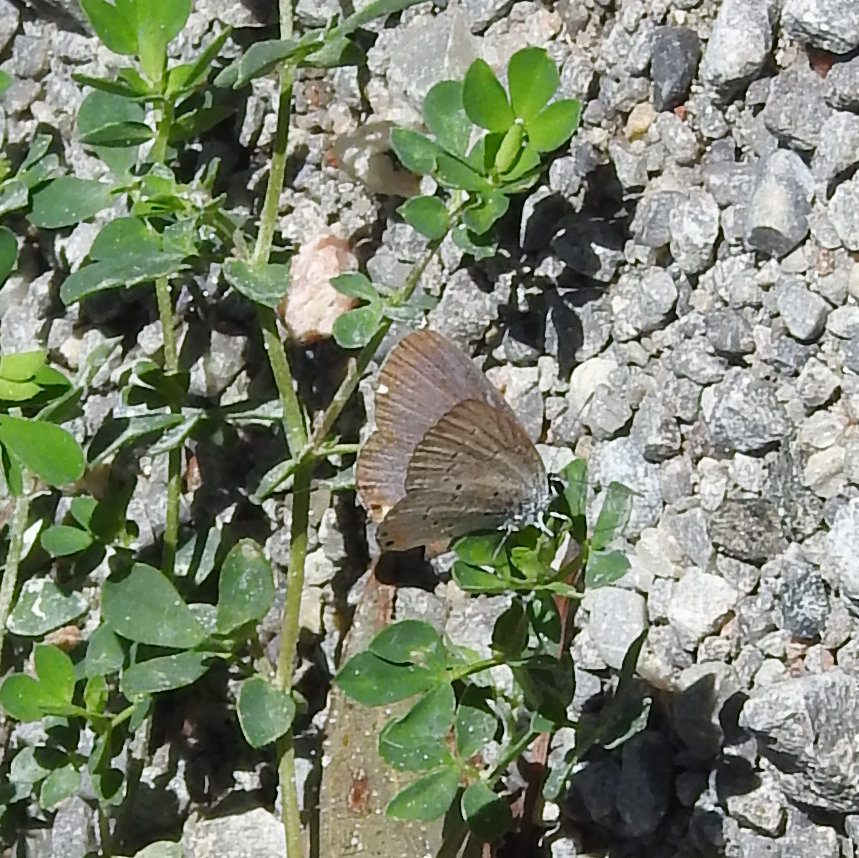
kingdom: Animalia
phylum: Arthropoda
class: Insecta
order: Lepidoptera
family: Lycaenidae
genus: Elkalyce
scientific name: Elkalyce comyntas
